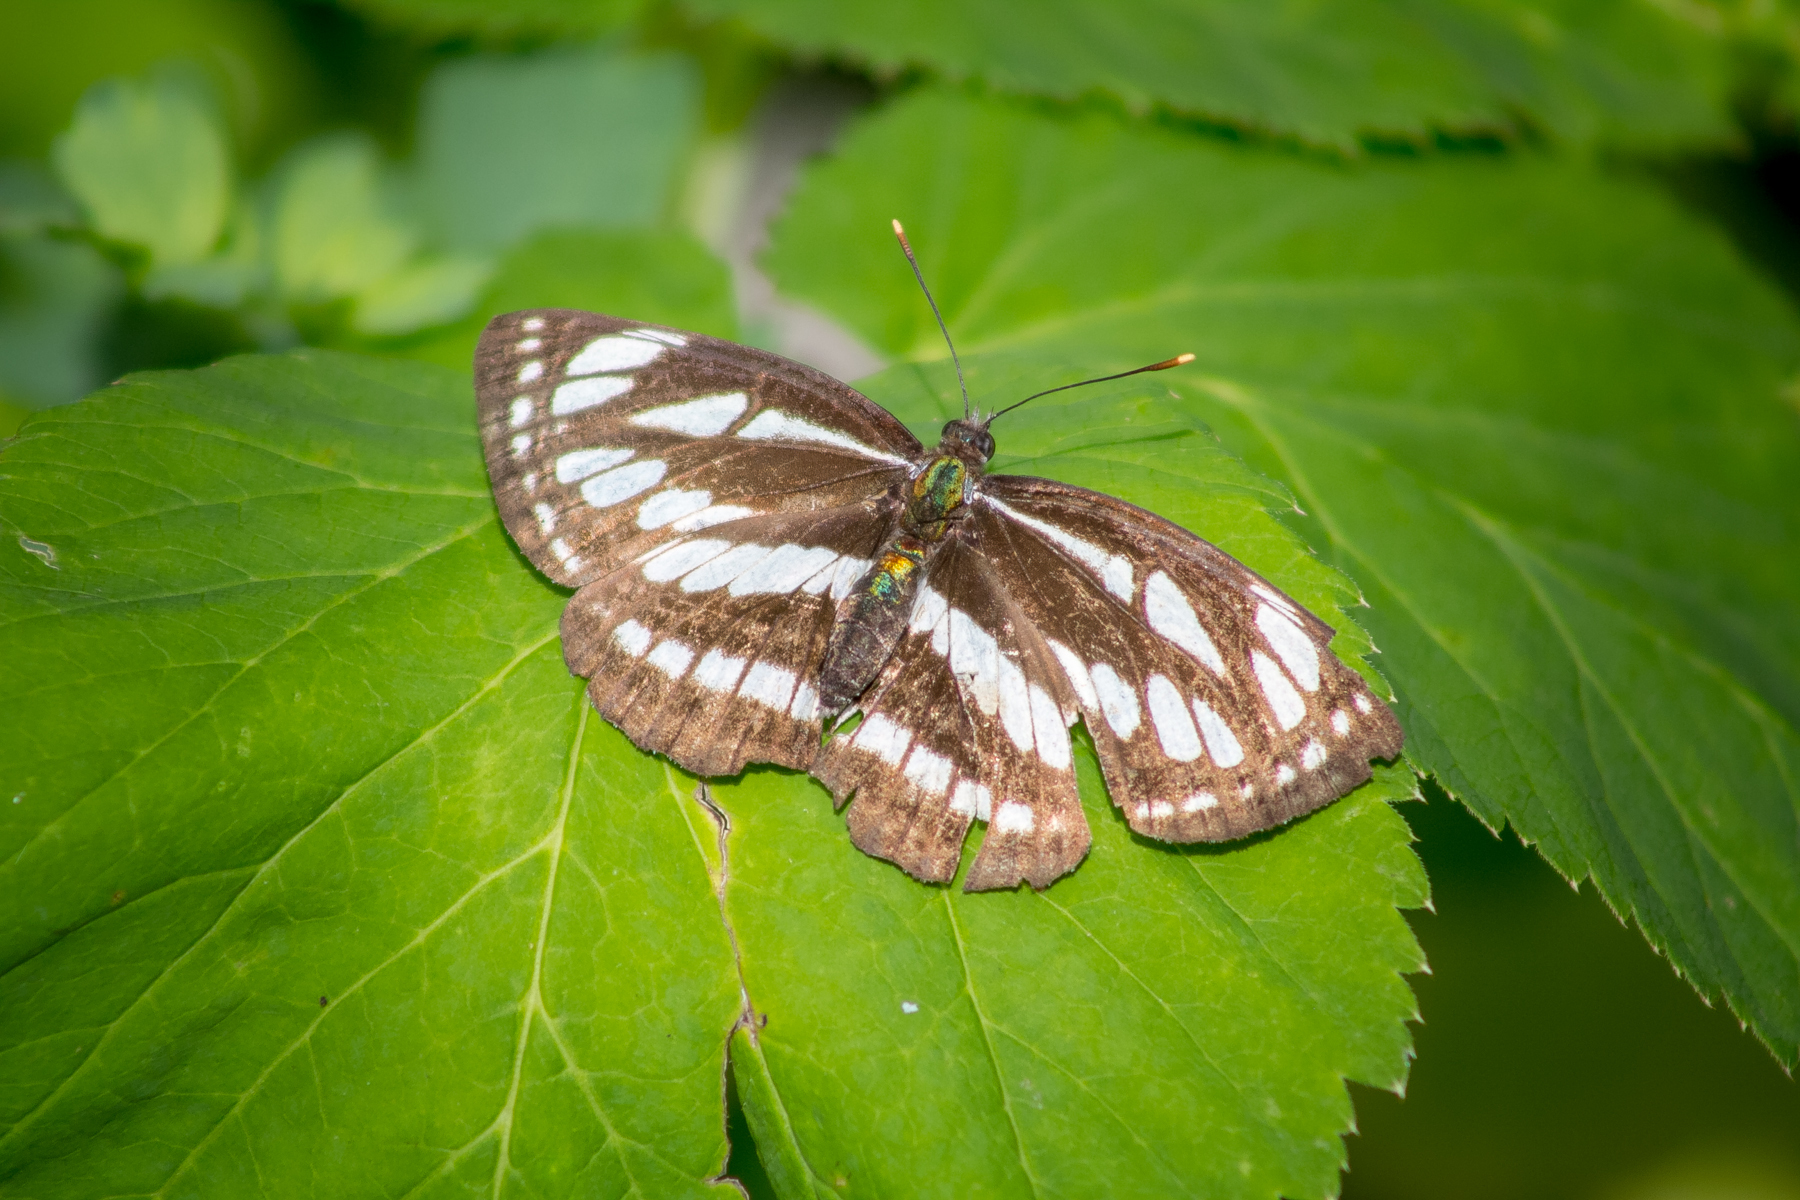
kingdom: Animalia
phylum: Arthropoda
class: Insecta
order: Lepidoptera
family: Nymphalidae
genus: Neptis
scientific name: Neptis sappho
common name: Common glider
